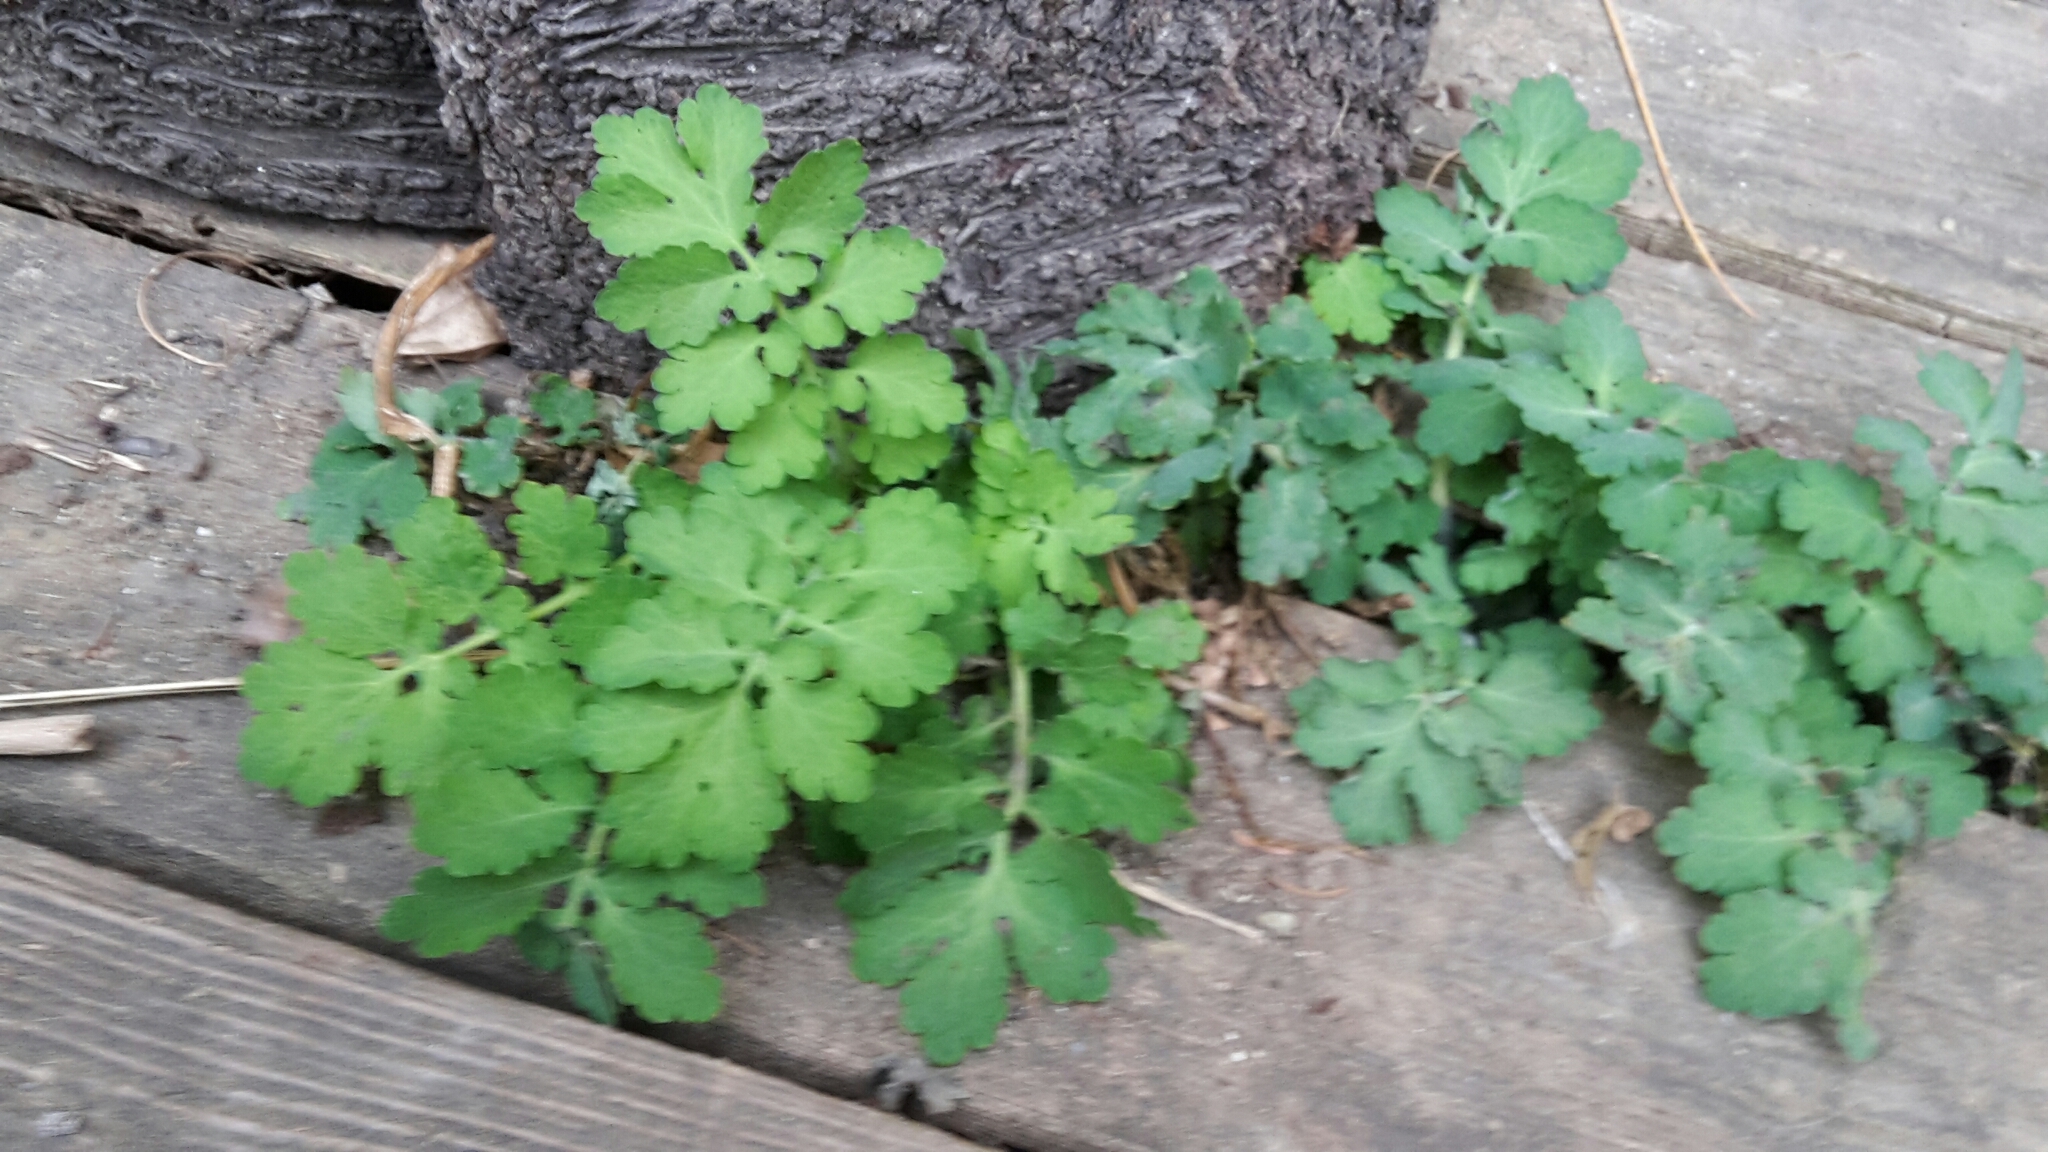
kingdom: Plantae
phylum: Tracheophyta
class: Magnoliopsida
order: Ranunculales
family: Papaveraceae
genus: Chelidonium
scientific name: Chelidonium majus
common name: Greater celandine
